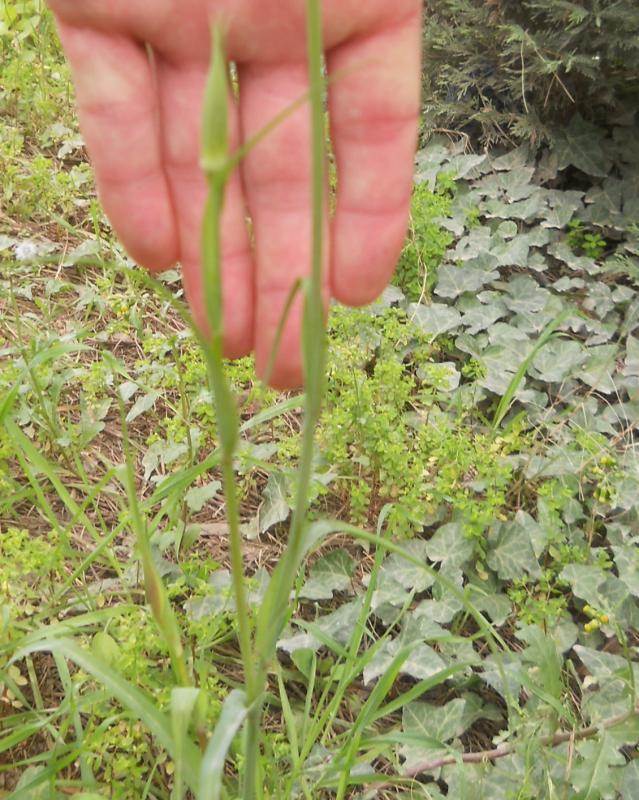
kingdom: Plantae
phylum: Tracheophyta
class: Magnoliopsida
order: Asterales
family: Asteraceae
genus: Tragopogon
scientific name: Tragopogon porrifolius
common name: Salsify
